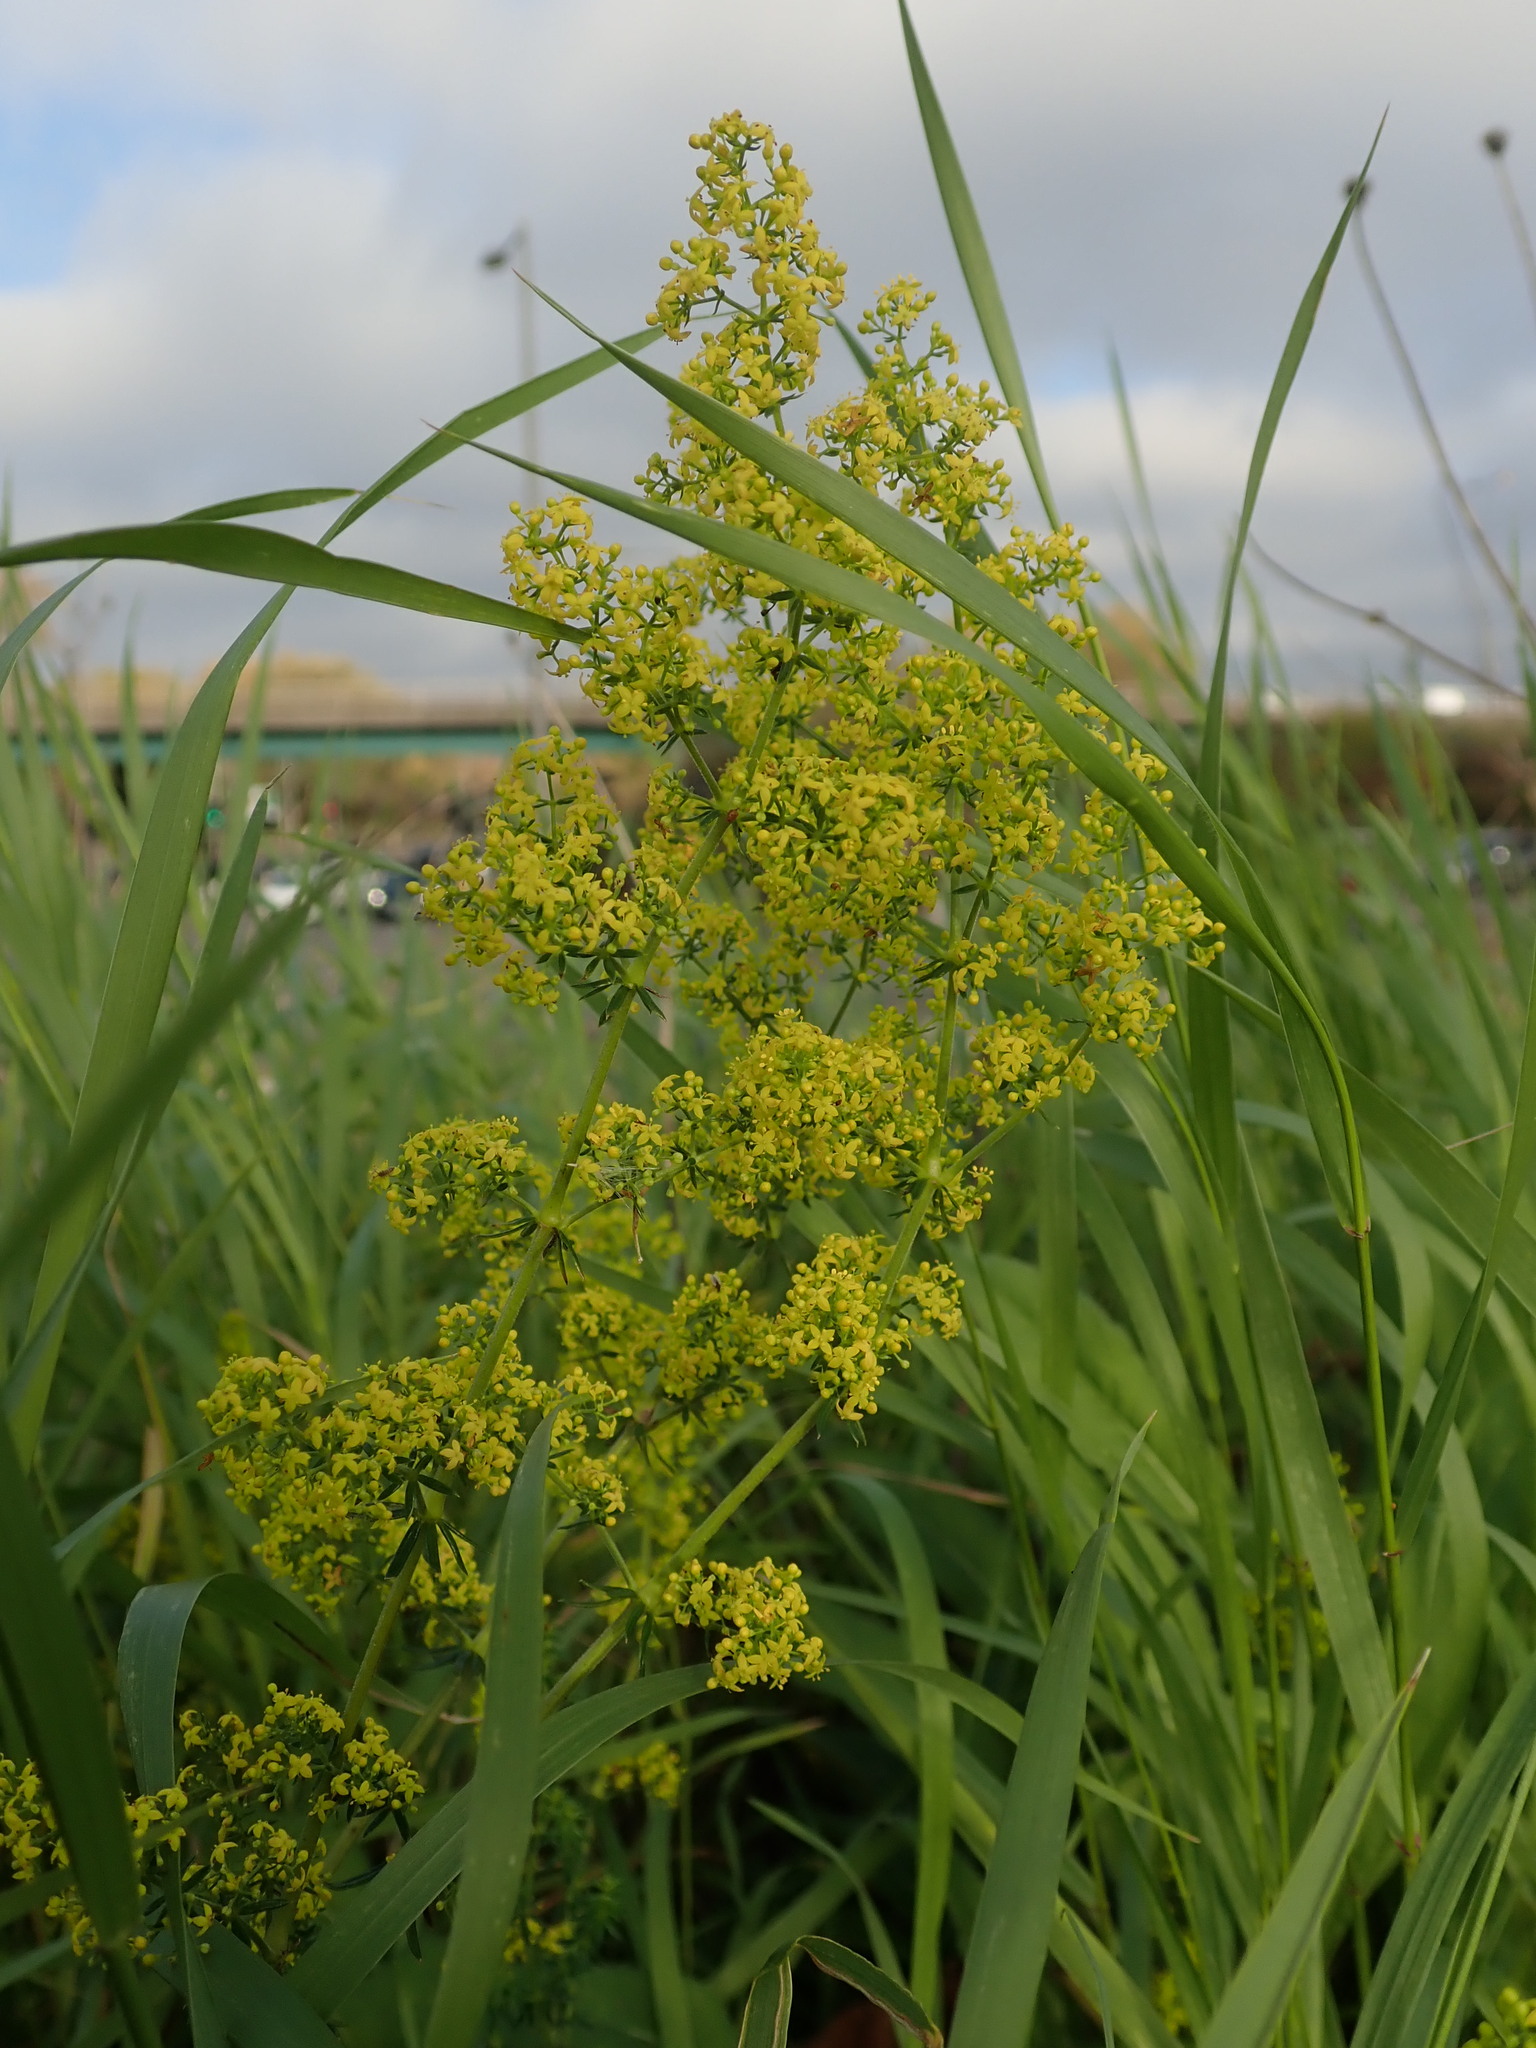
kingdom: Plantae
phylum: Tracheophyta
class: Magnoliopsida
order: Gentianales
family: Rubiaceae
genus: Galium
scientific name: Galium verum
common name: Lady's bedstraw
